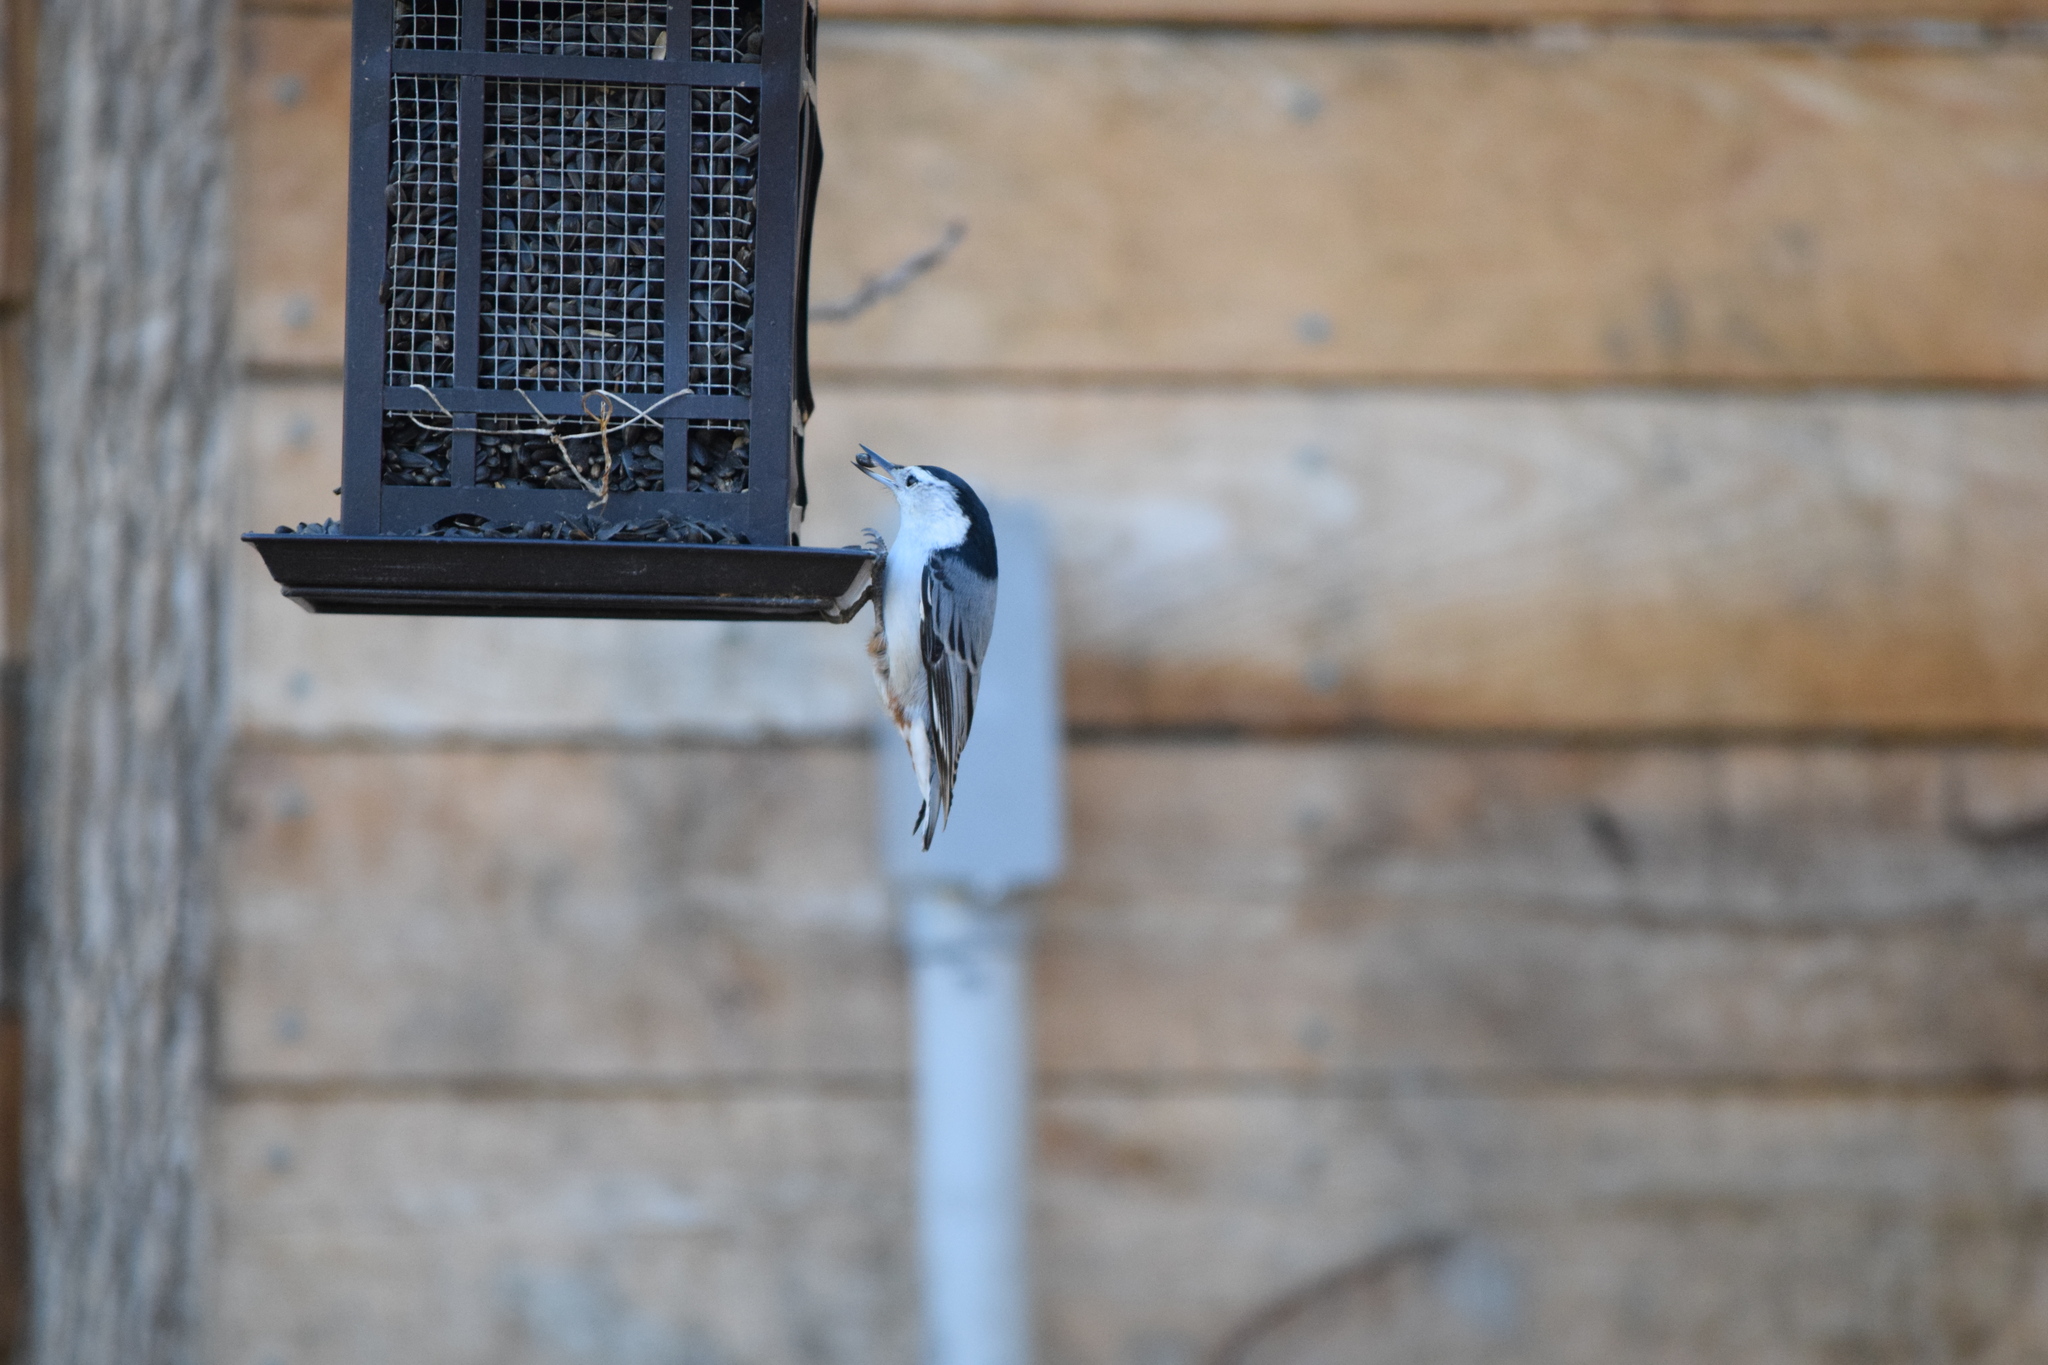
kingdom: Animalia
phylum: Chordata
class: Aves
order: Passeriformes
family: Sittidae
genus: Sitta
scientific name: Sitta carolinensis
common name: White-breasted nuthatch
